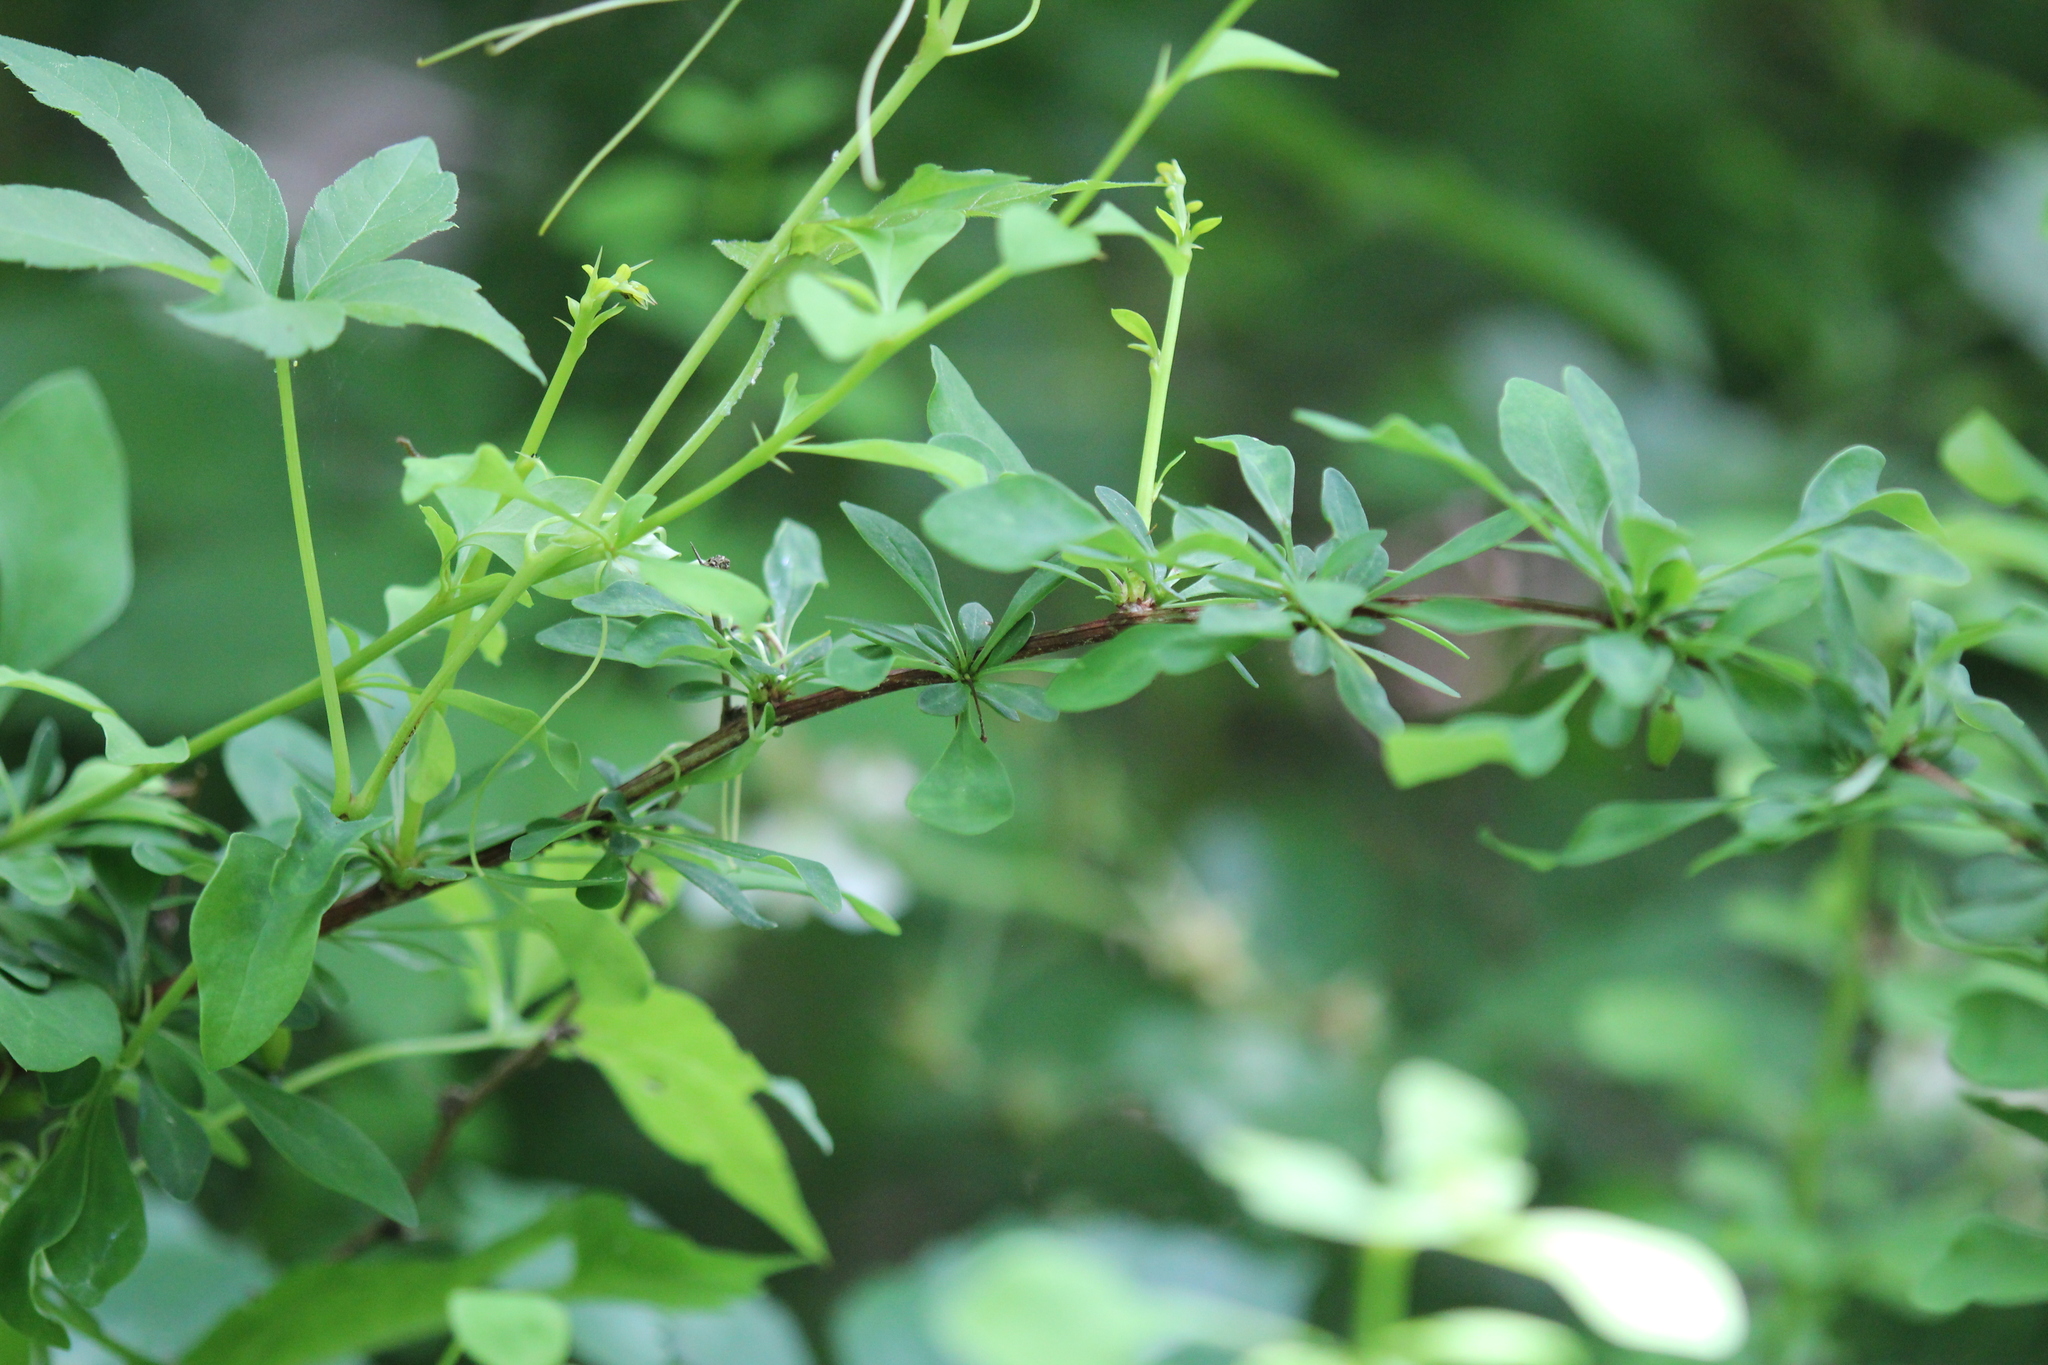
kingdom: Plantae
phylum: Tracheophyta
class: Magnoliopsida
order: Ranunculales
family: Berberidaceae
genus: Berberis
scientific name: Berberis thunbergii
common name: Japanese barberry
